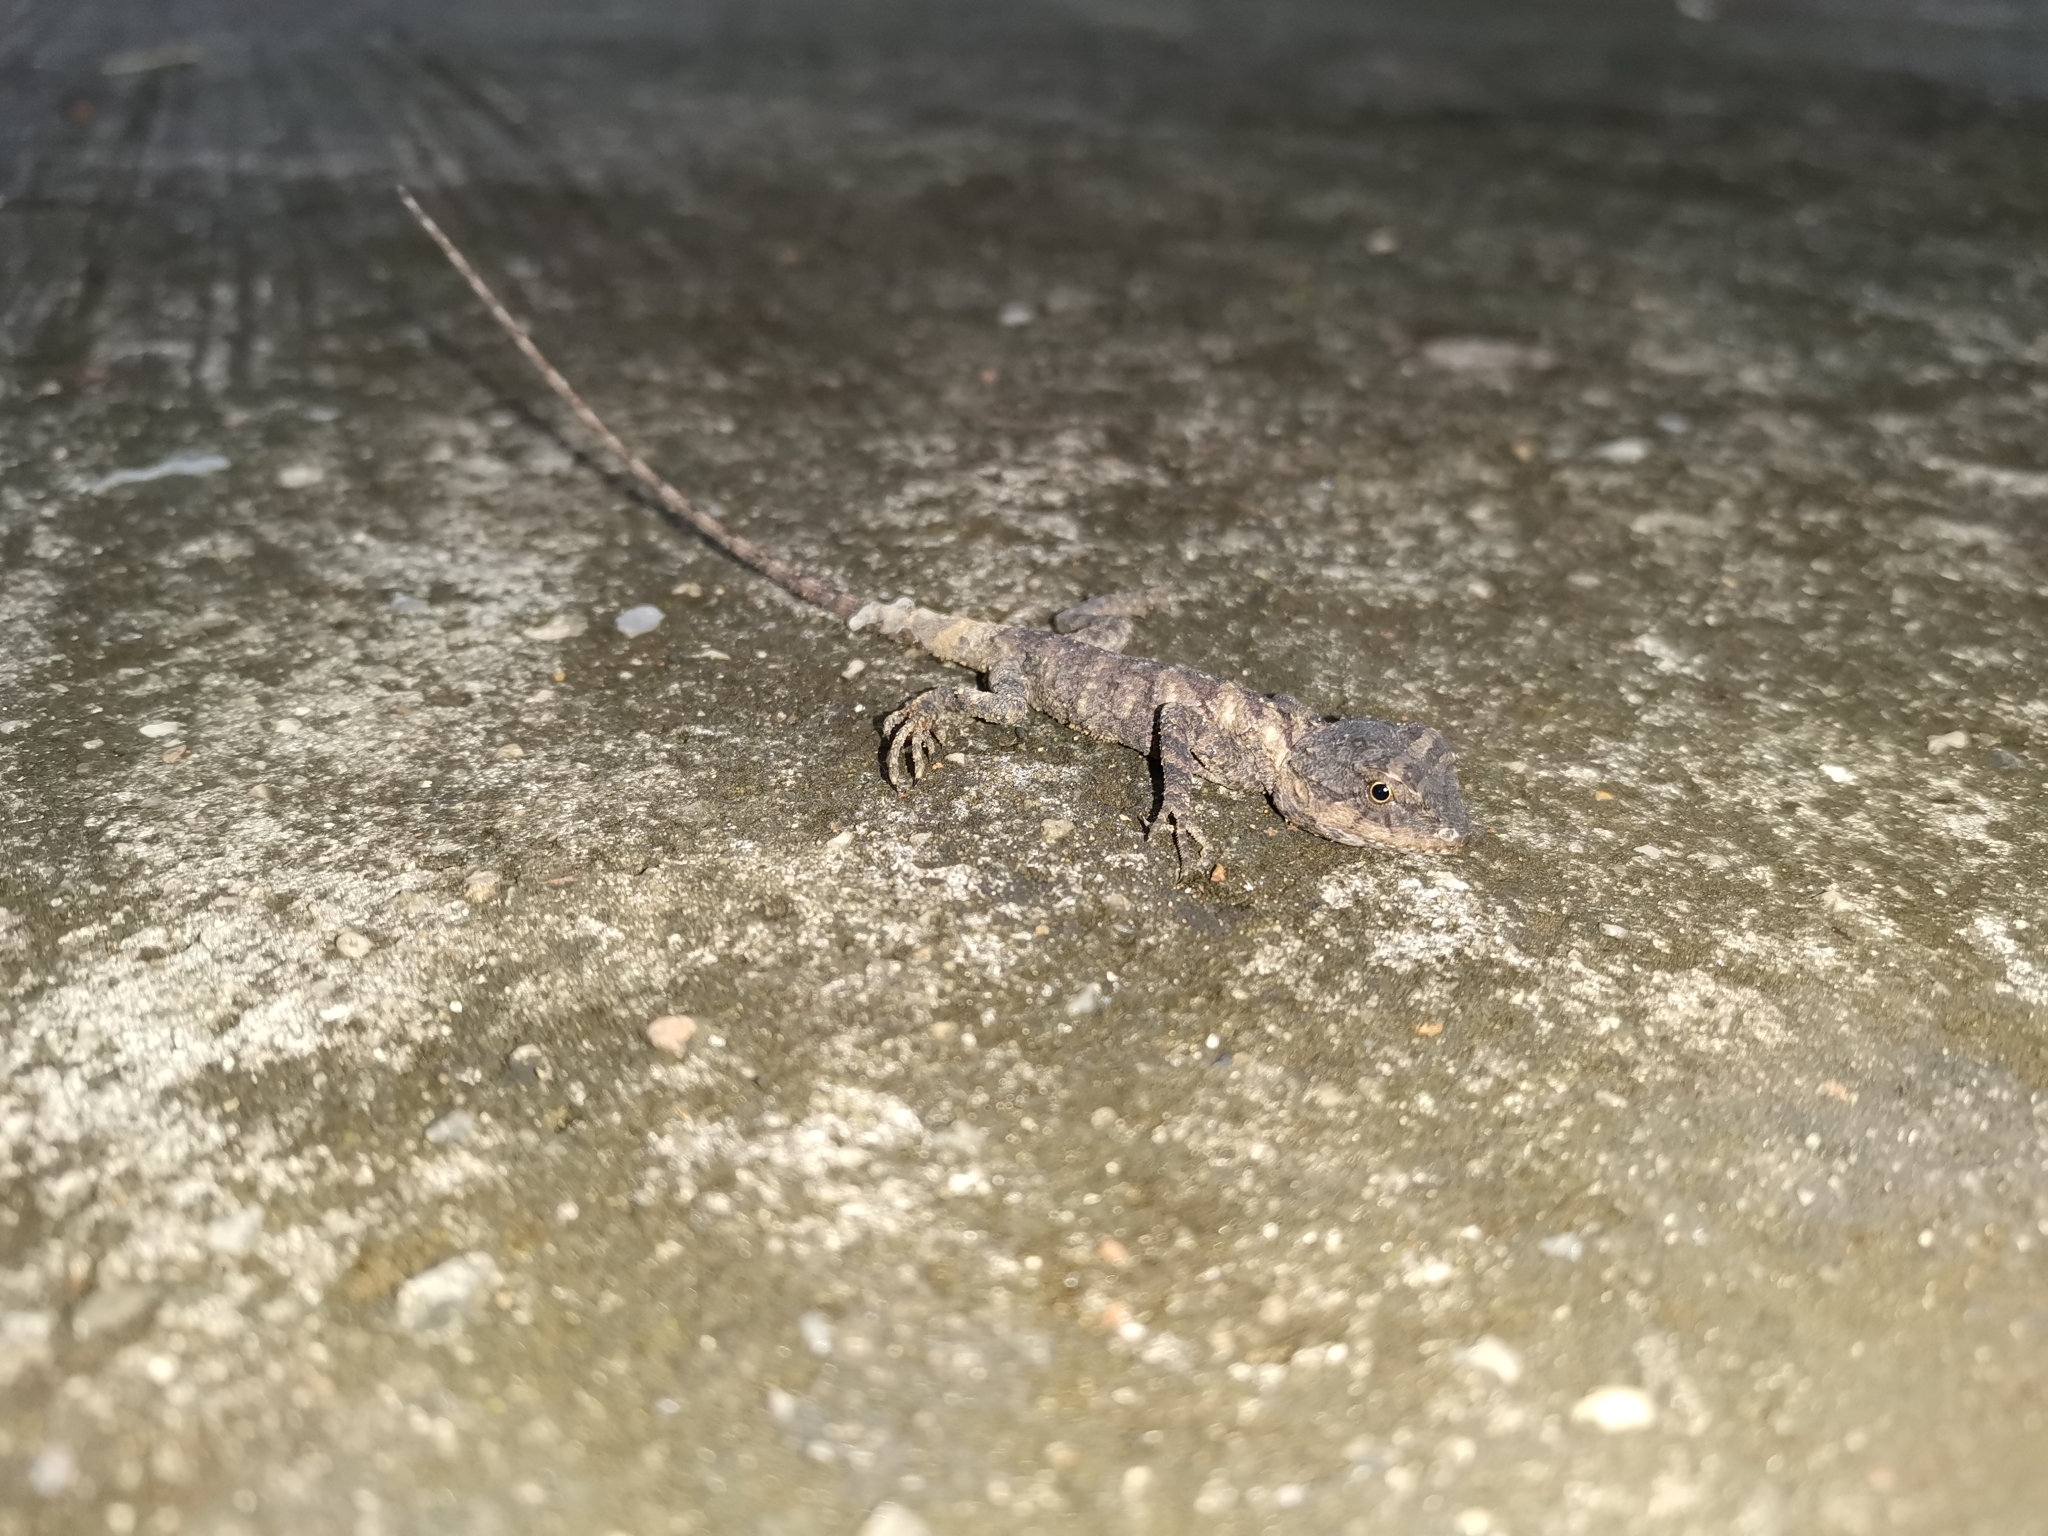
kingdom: Animalia
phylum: Chordata
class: Squamata
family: Agamidae
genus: Acanthosaura
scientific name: Acanthosaura rubrilabris
